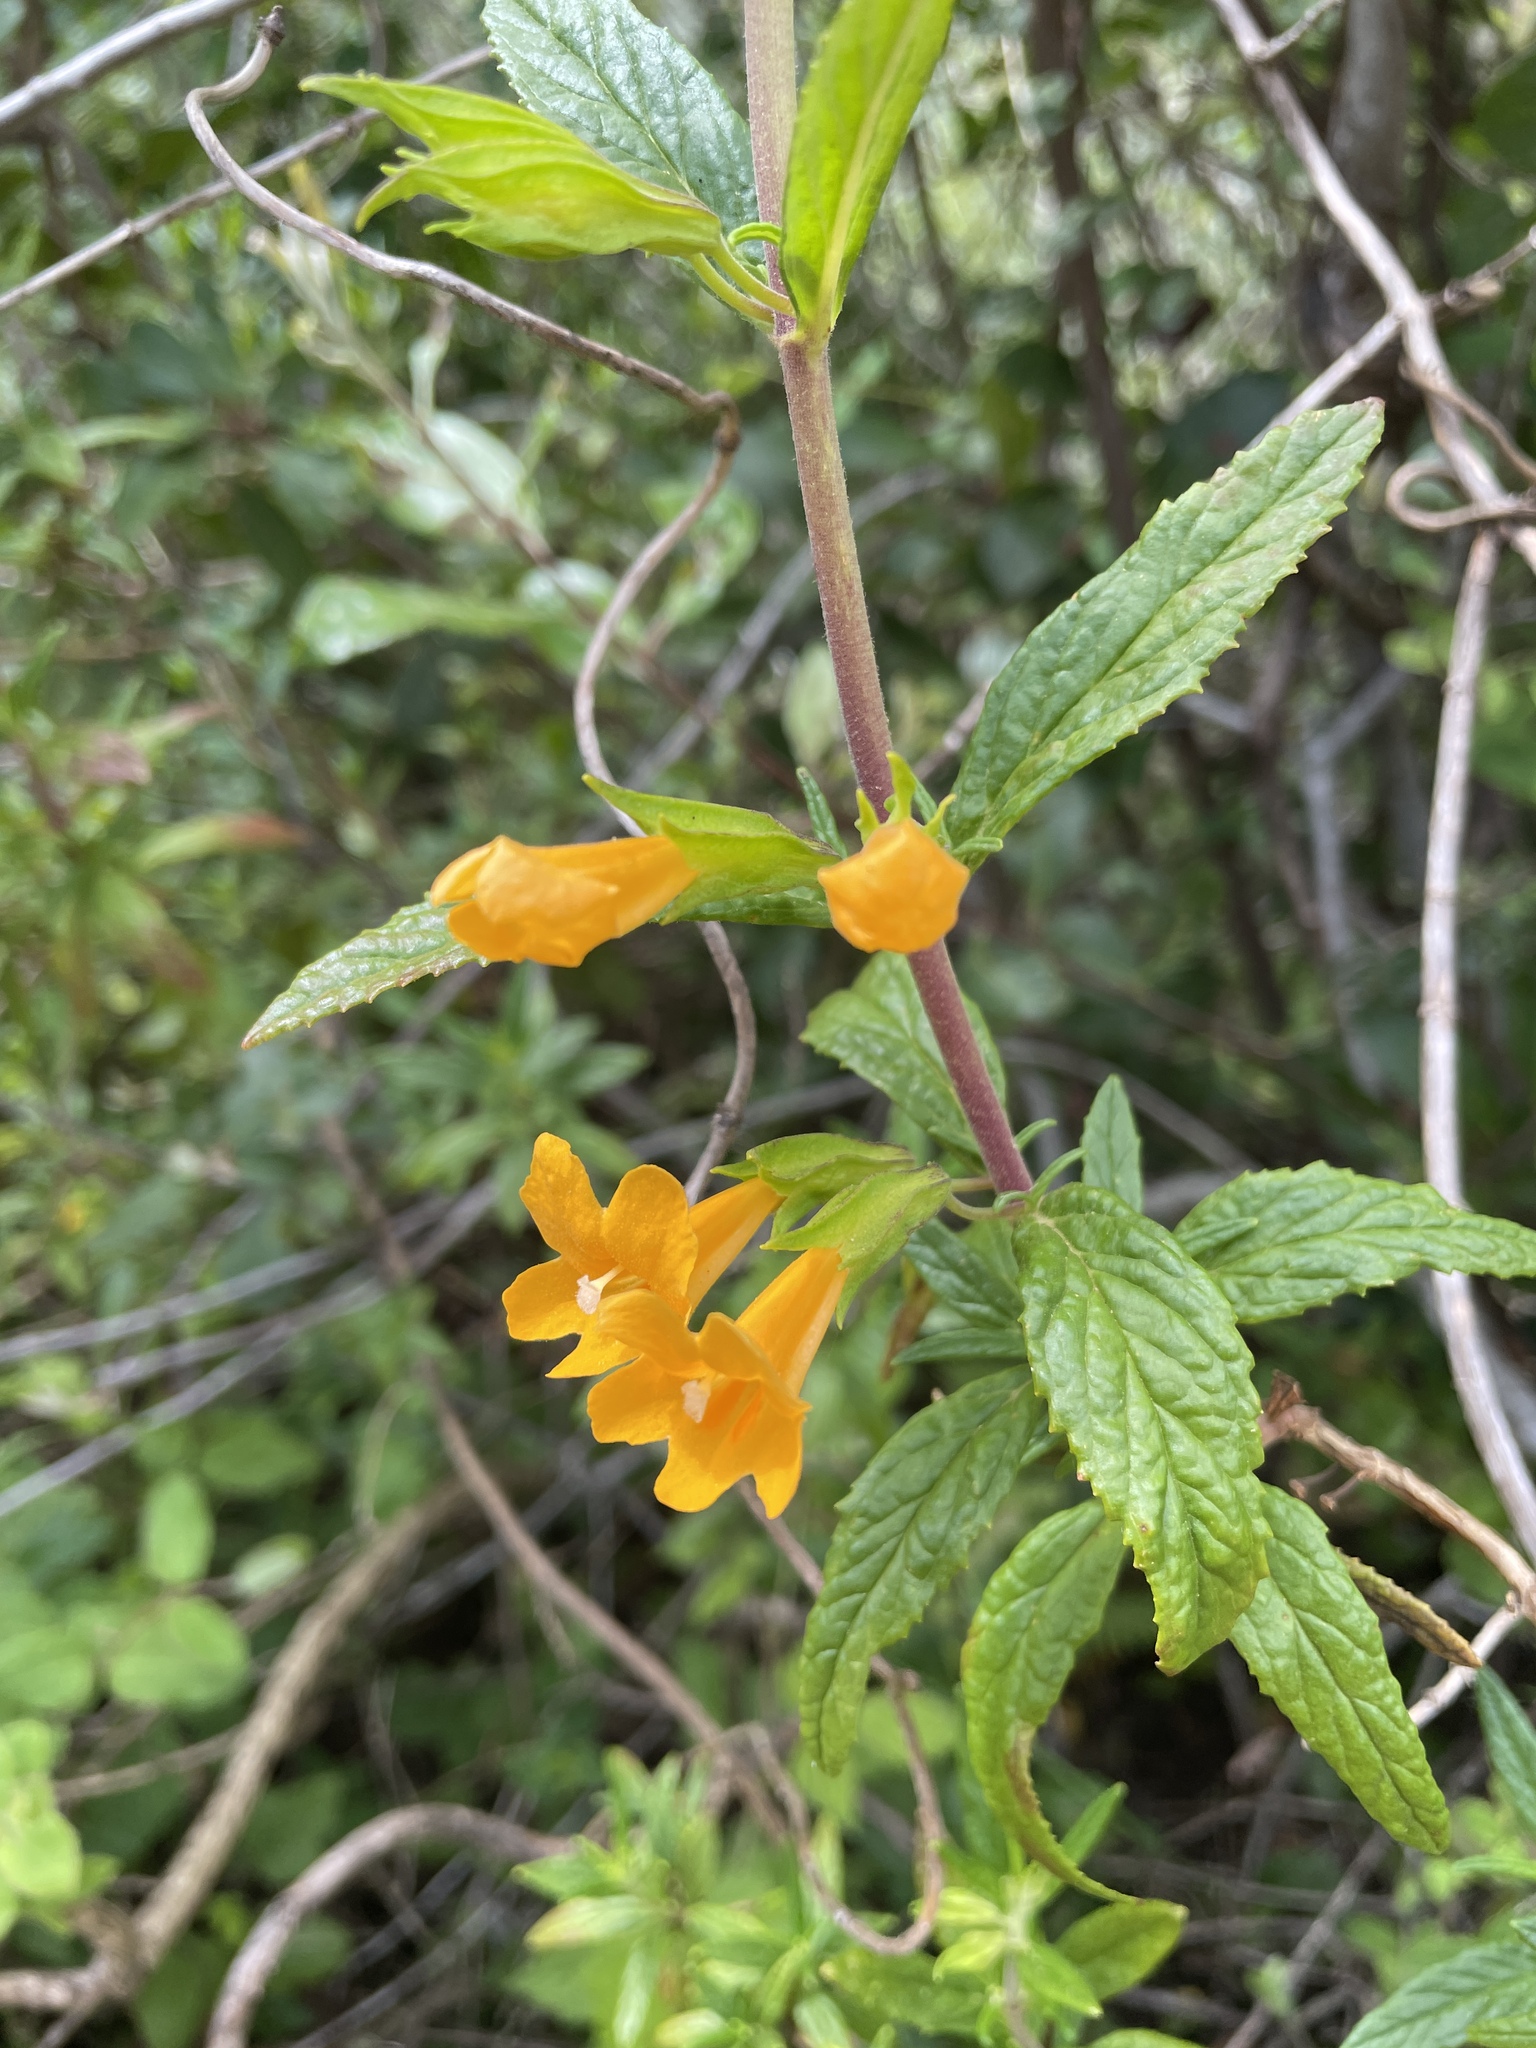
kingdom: Plantae
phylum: Tracheophyta
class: Magnoliopsida
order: Lamiales
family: Phrymaceae
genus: Diplacus
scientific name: Diplacus aurantiacus
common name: Bush monkey-flower
